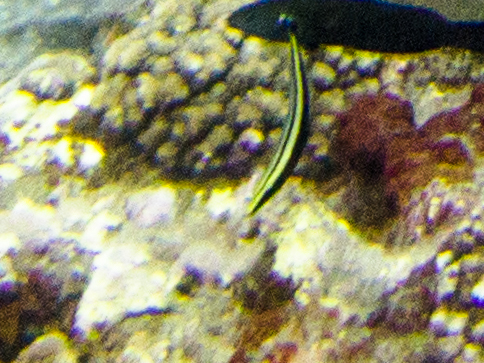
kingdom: Animalia
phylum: Chordata
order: Perciformes
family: Labridae
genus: Hologymnosus
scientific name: Hologymnosus annulatus
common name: Ring wrasse
